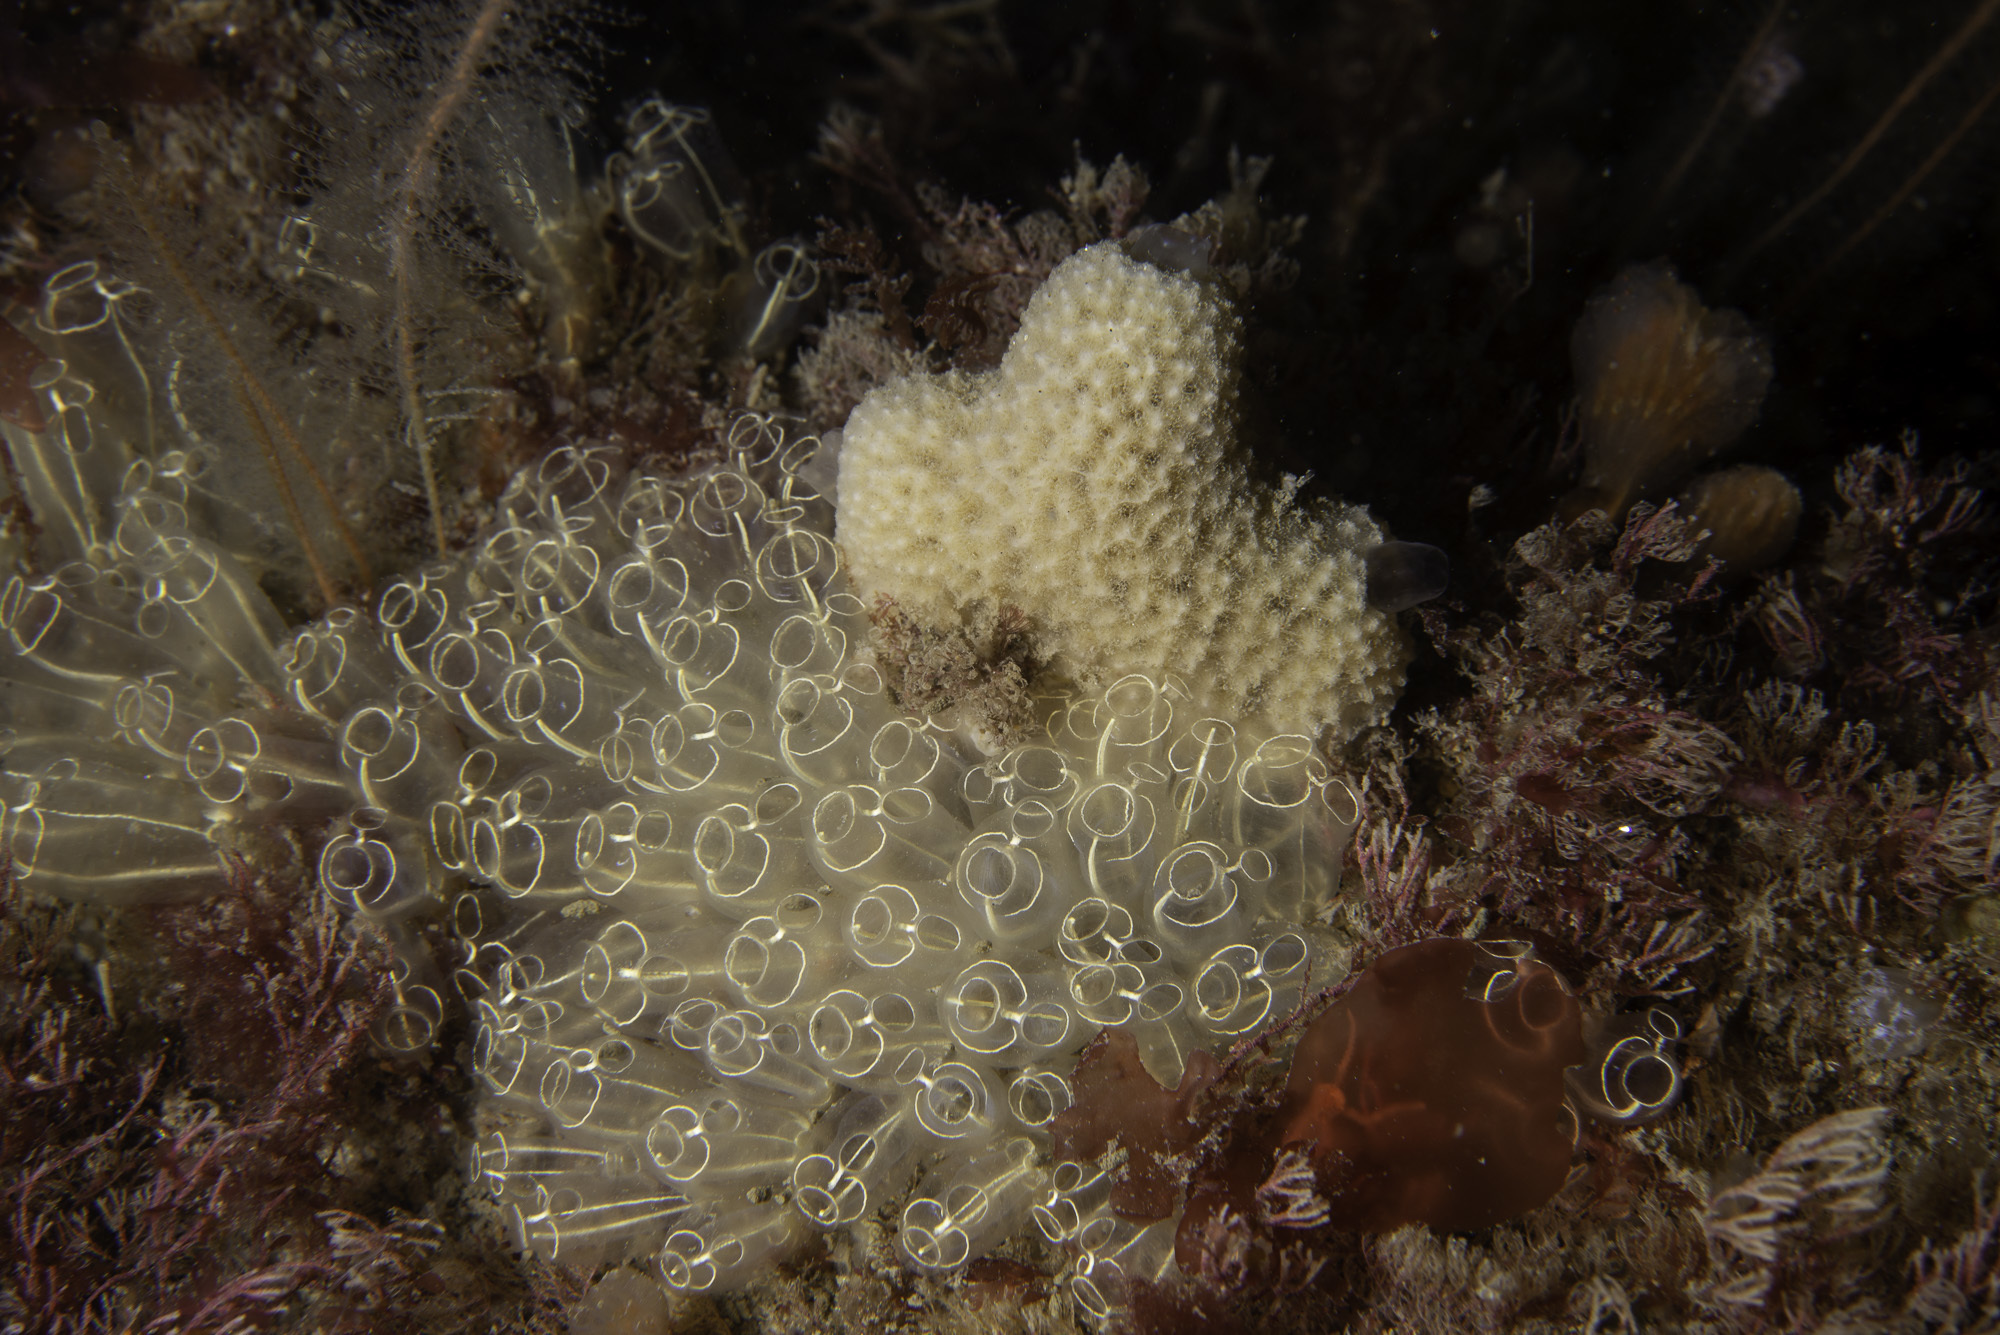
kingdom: Animalia
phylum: Porifera
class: Demospongiae
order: Dictyoceratida
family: Dysideidae
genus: Dysidea
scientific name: Dysidea fragilis
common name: Goosebump sponge
